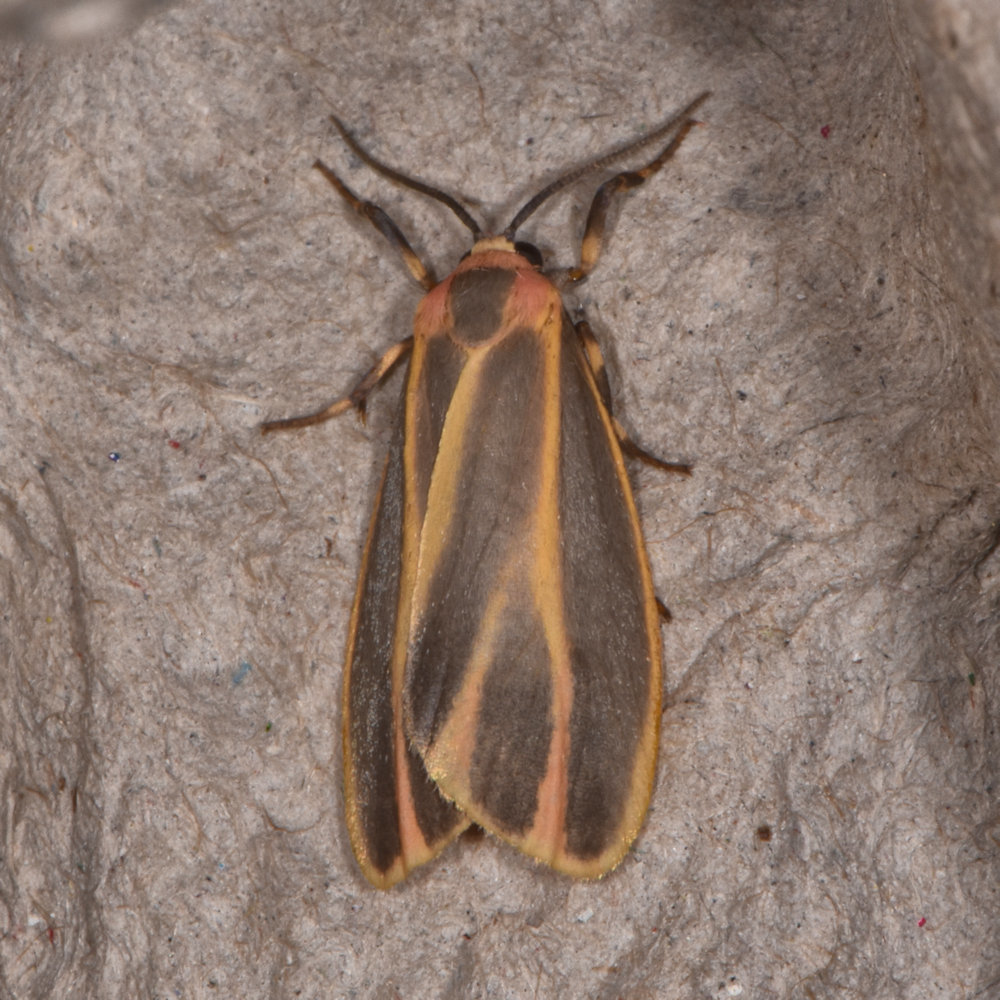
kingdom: Animalia
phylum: Arthropoda
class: Insecta
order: Lepidoptera
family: Erebidae
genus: Hypoprepia
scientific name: Hypoprepia fucosa
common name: Painted lichen moth
